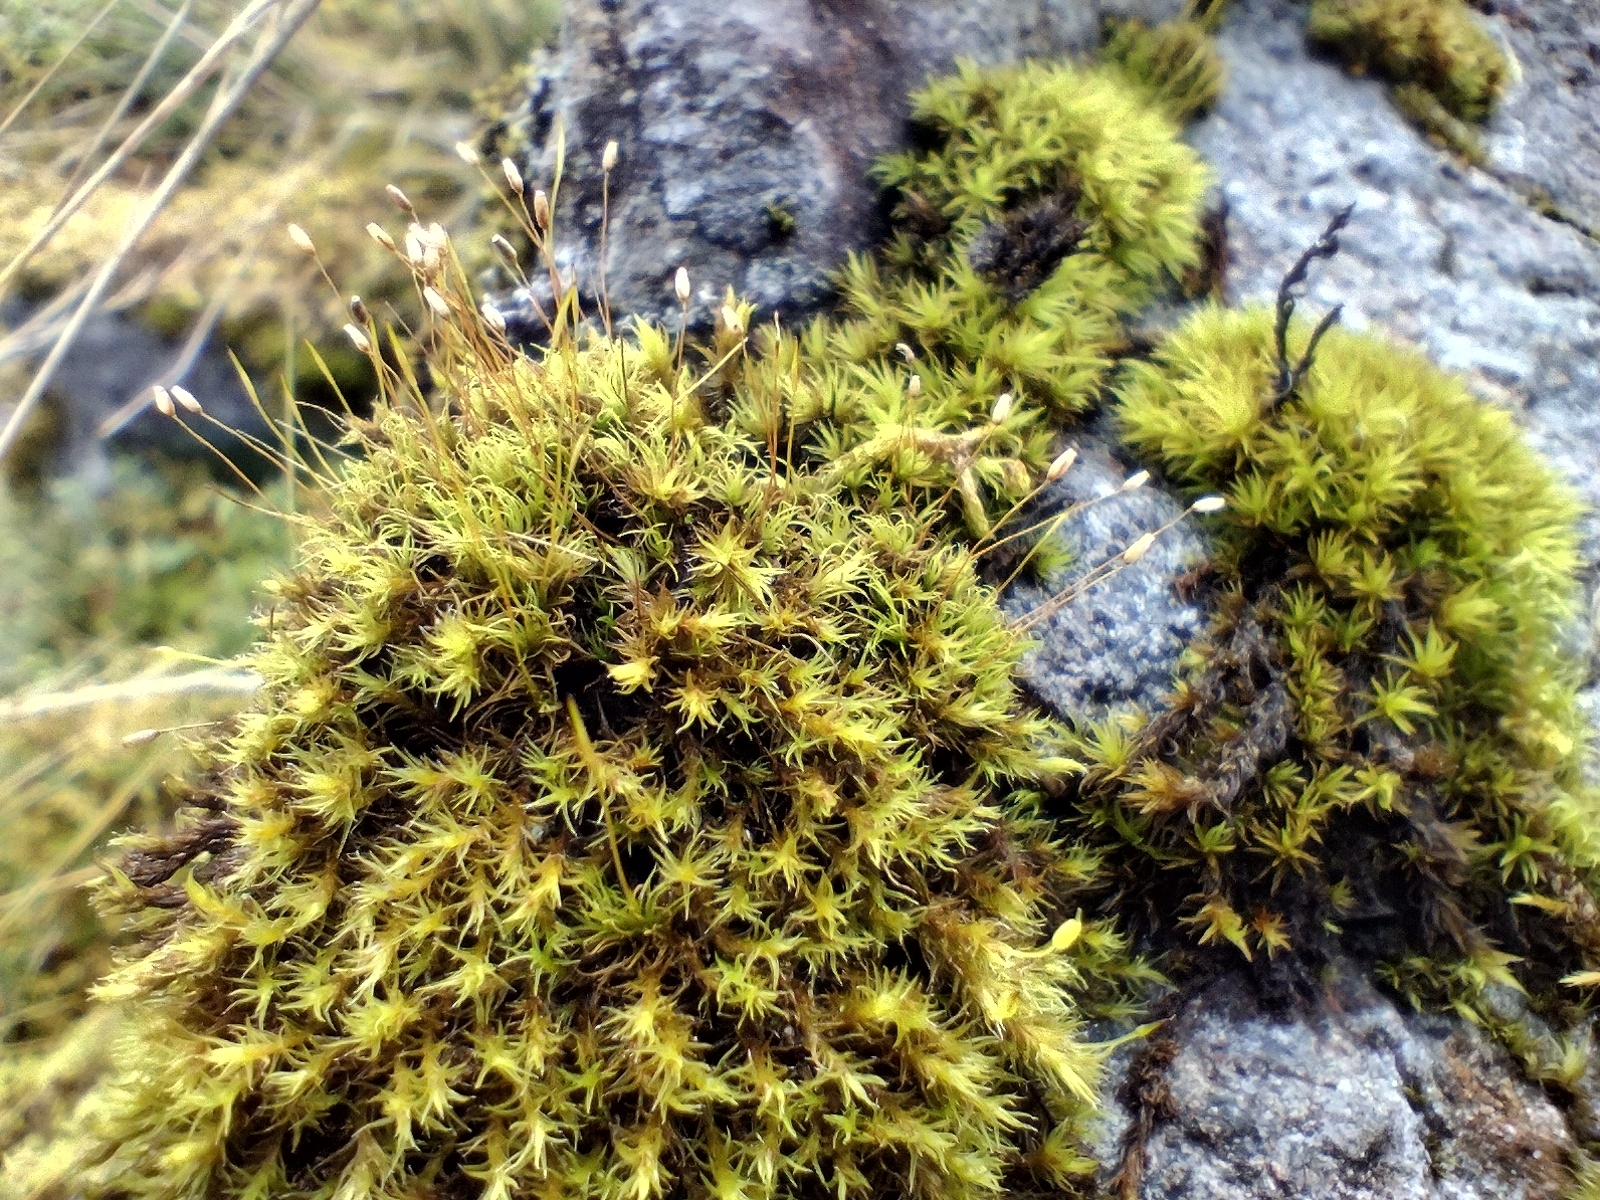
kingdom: Plantae
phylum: Bryophyta
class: Bryopsida
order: Scouleriales
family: Hymenolomataceae
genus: Hymenoloma
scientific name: Hymenoloma crispulum
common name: Mountain pincushion
